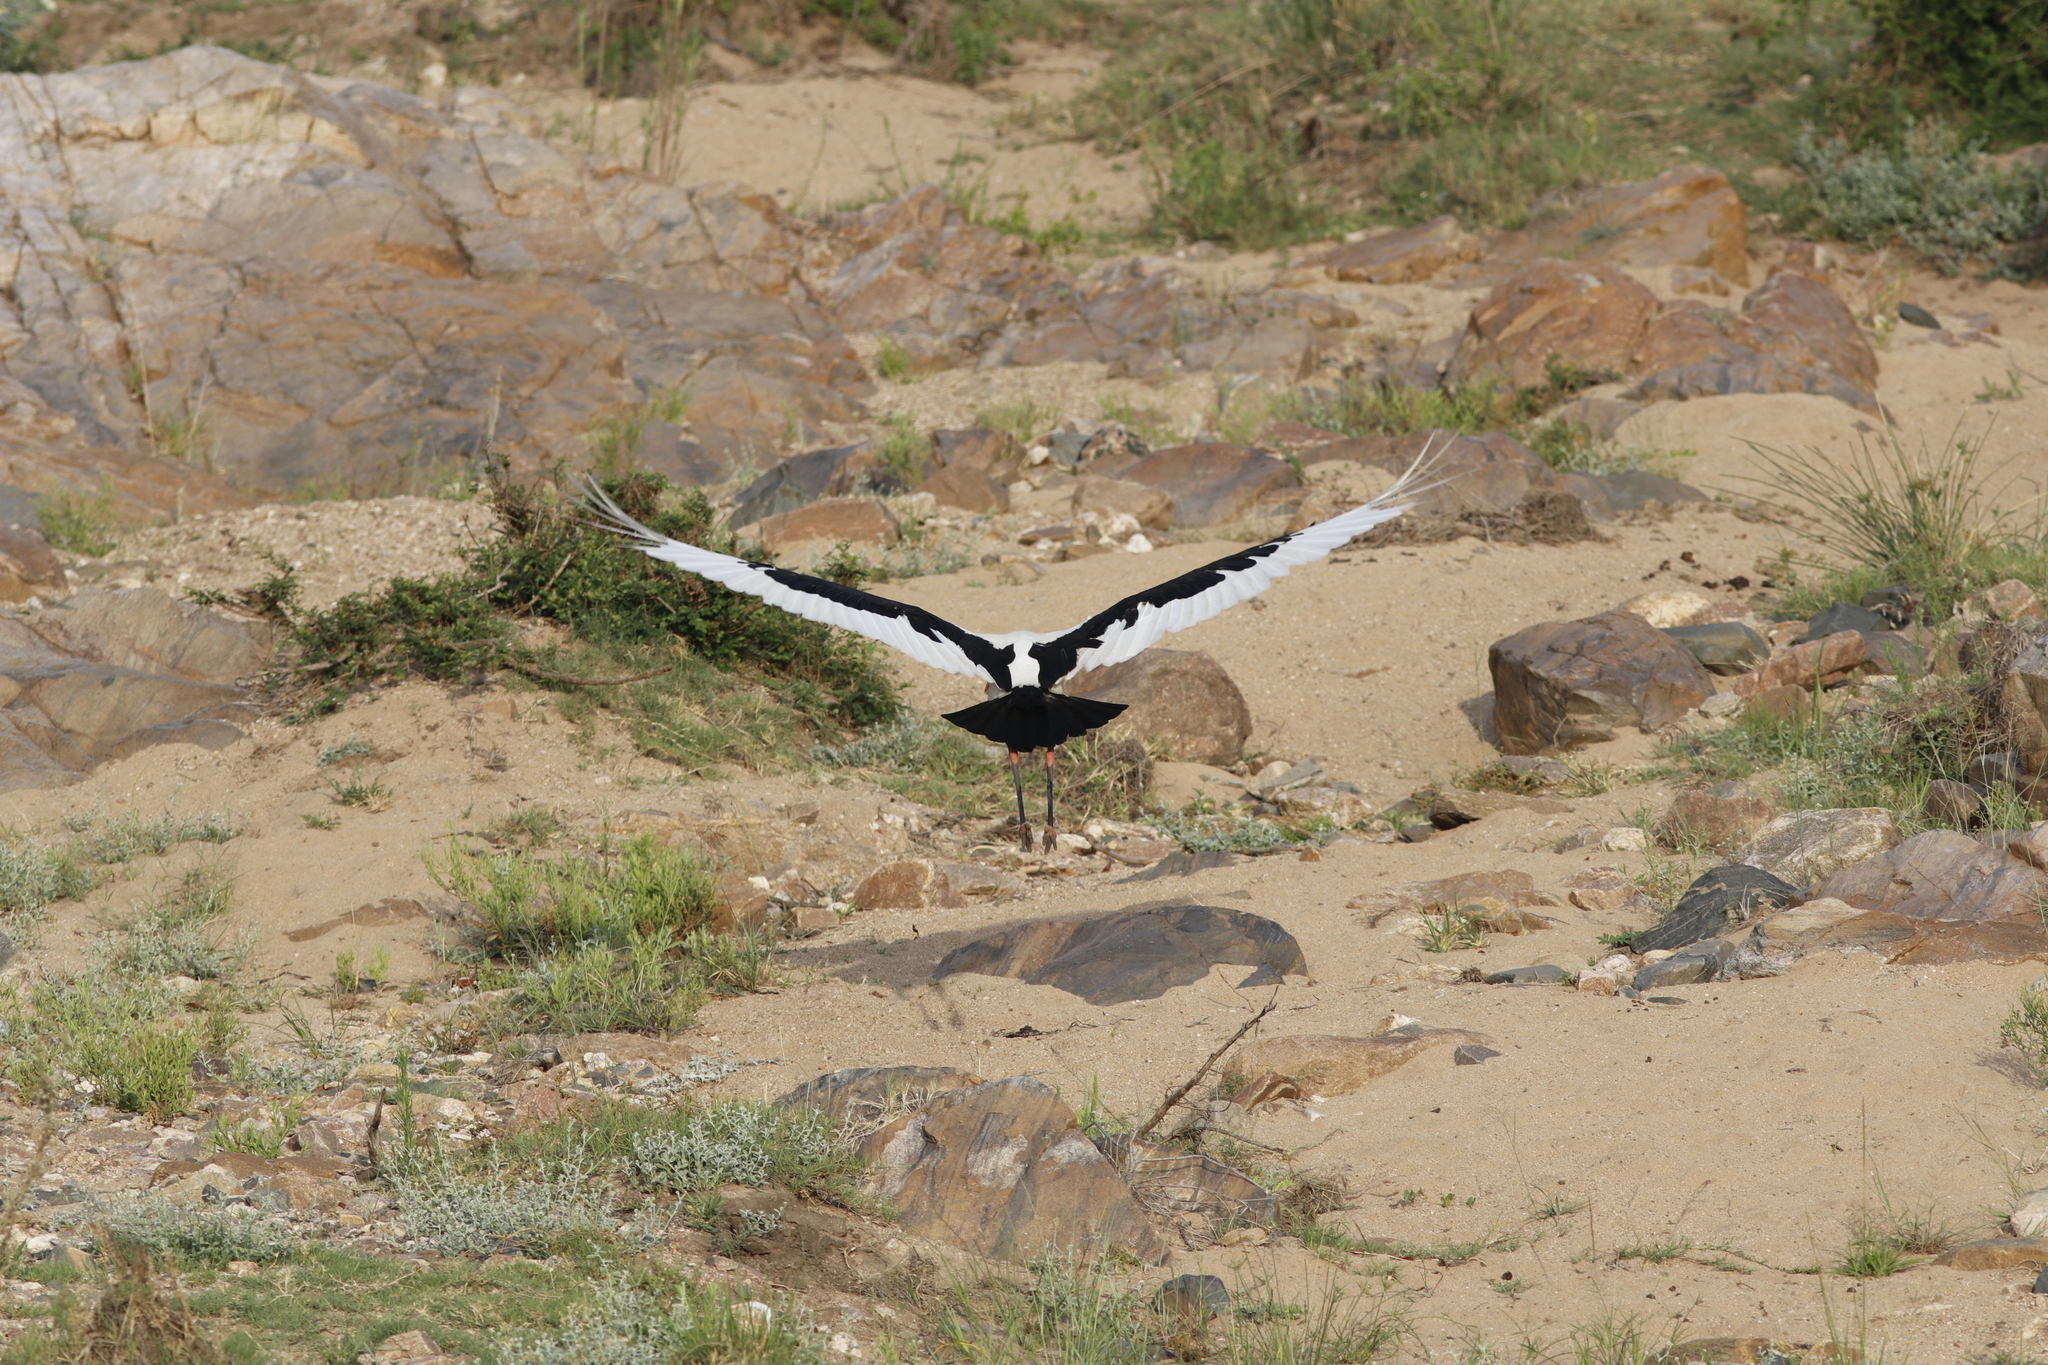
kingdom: Animalia
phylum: Chordata
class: Aves
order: Ciconiiformes
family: Ciconiidae
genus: Ephippiorhynchus
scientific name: Ephippiorhynchus senegalensis
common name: Saddle-billed stork
